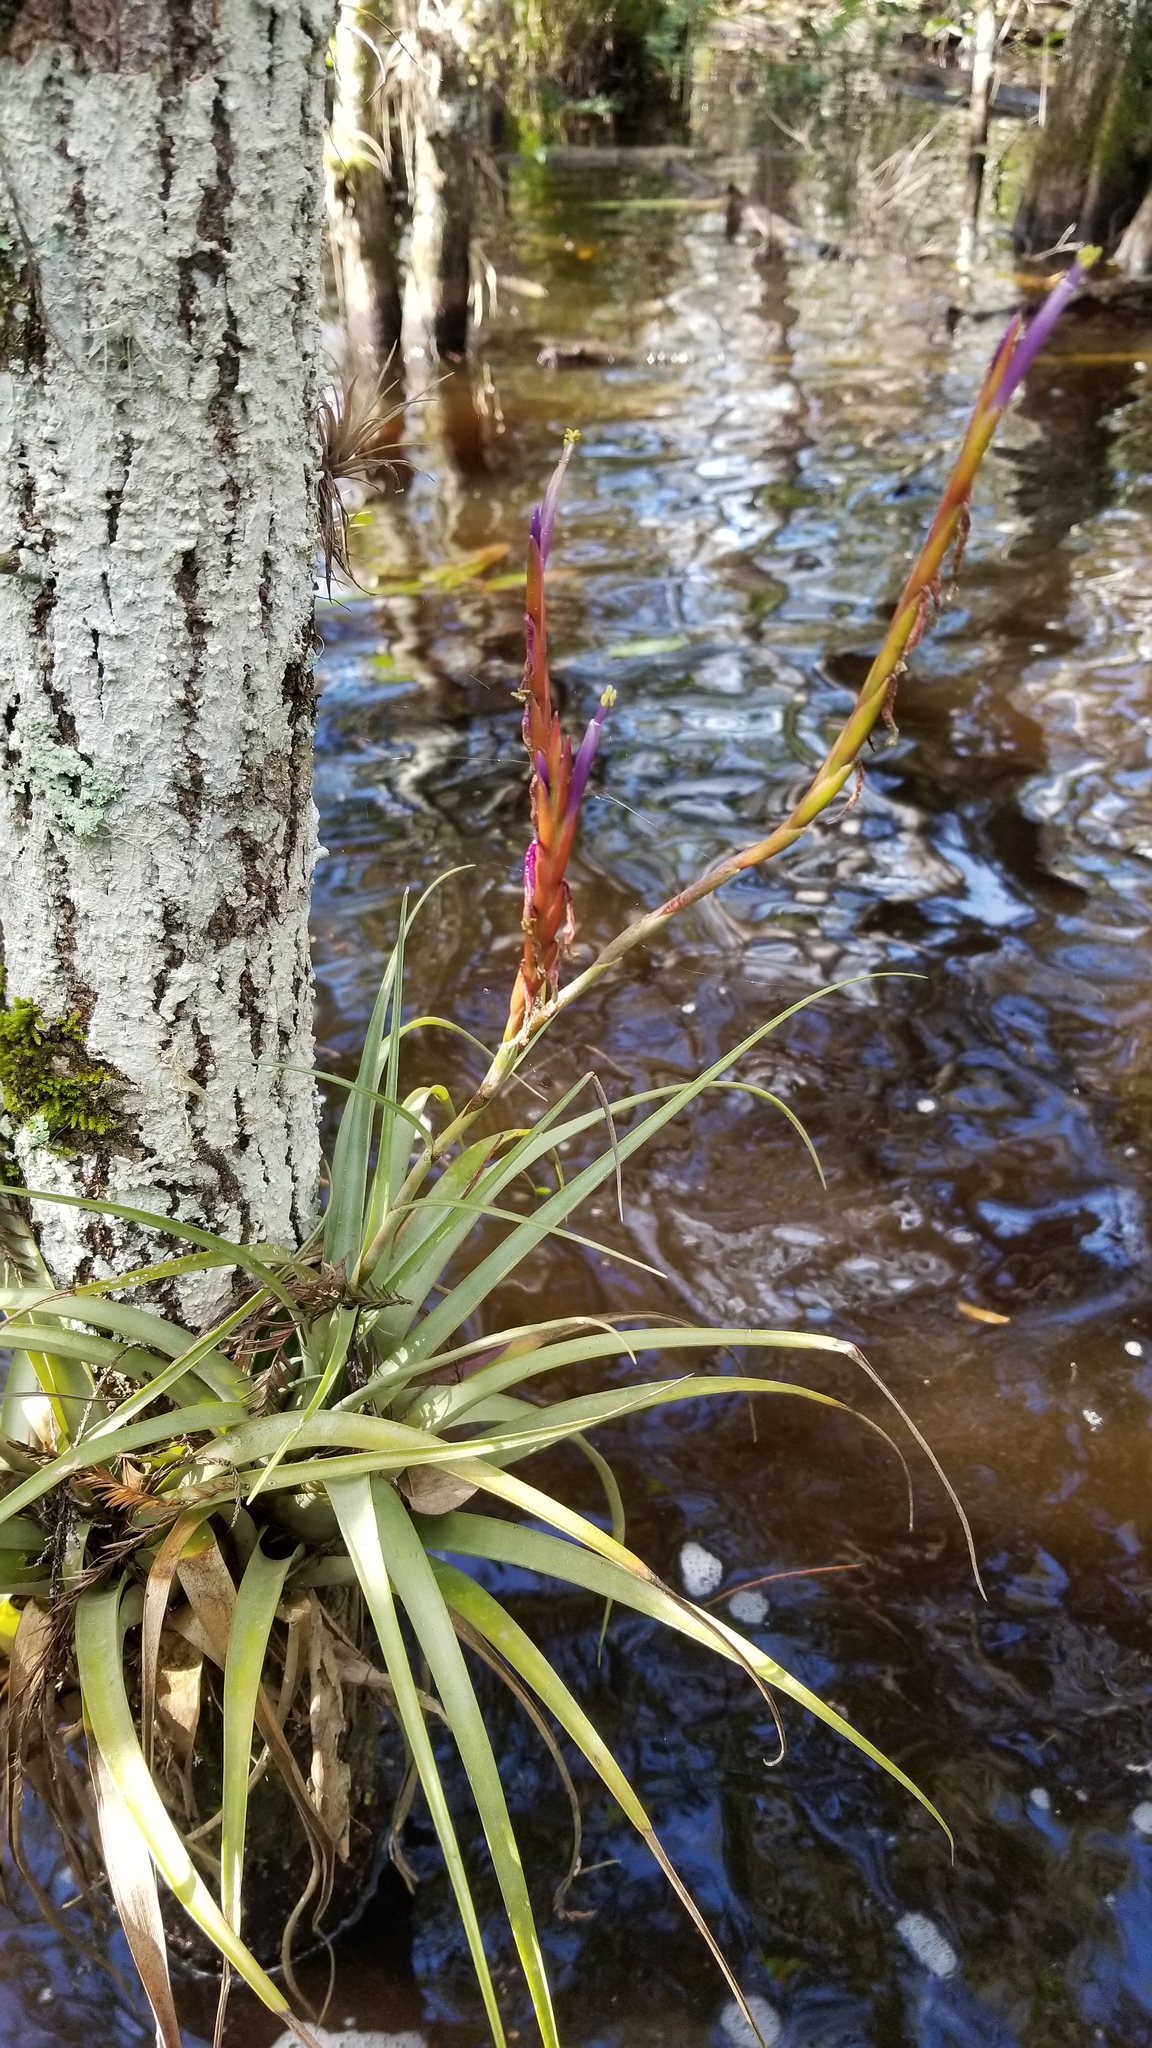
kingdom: Plantae
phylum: Tracheophyta
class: Liliopsida
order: Poales
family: Bromeliaceae
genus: Tillandsia
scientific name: Tillandsia variabilis
